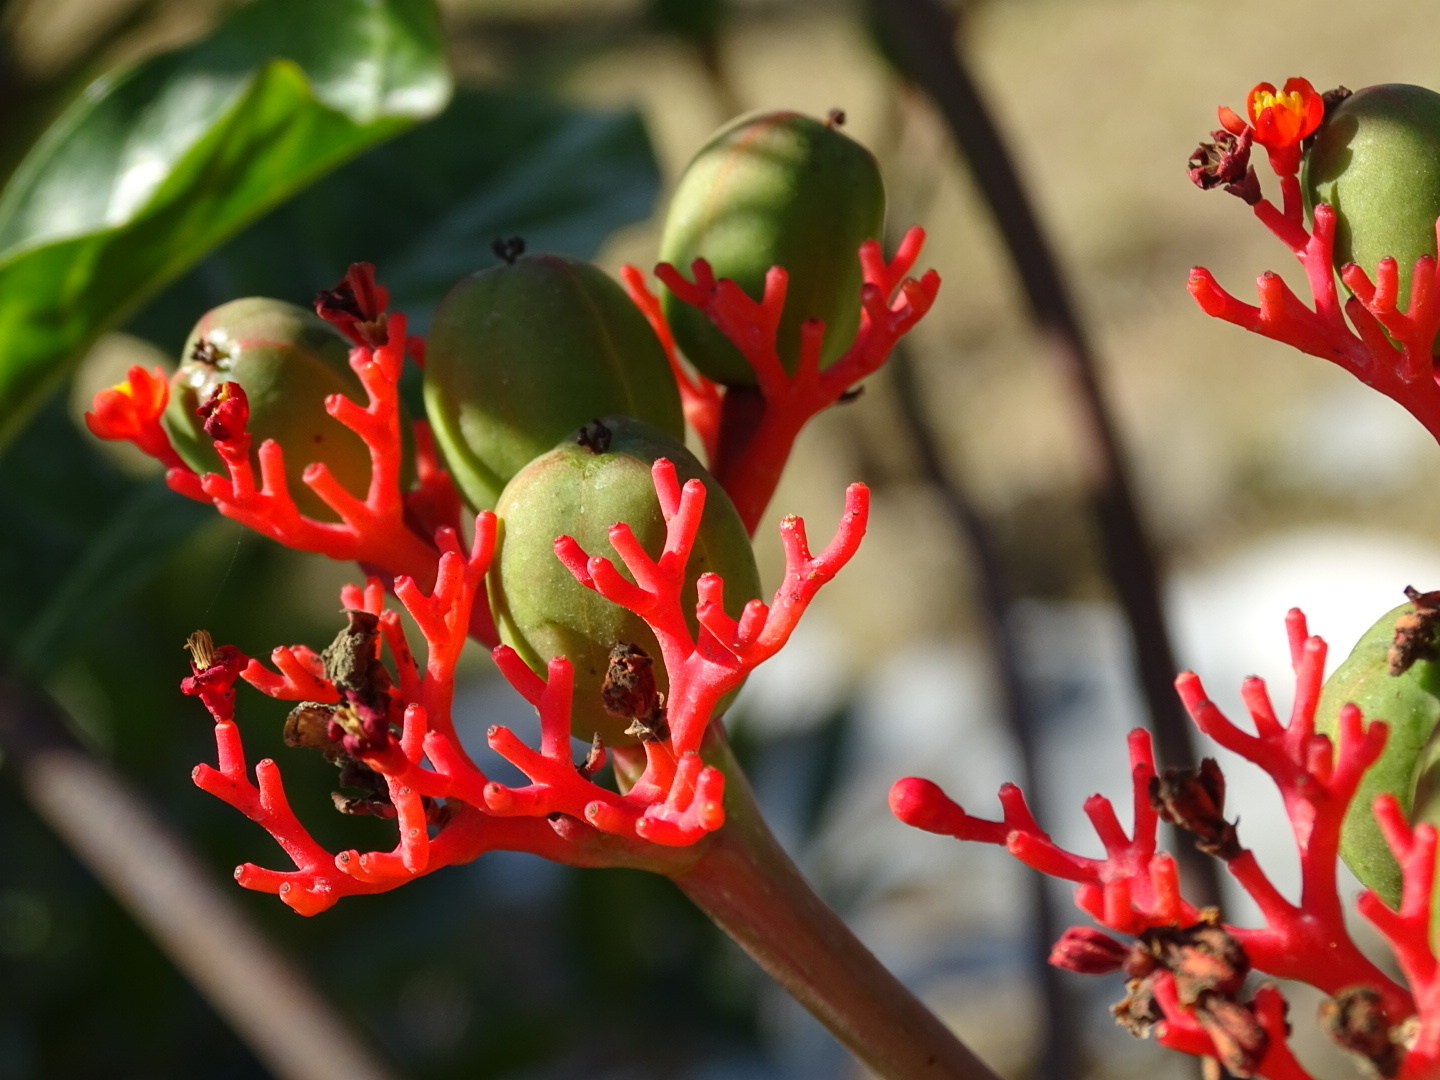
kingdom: Plantae
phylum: Tracheophyta
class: Magnoliopsida
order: Malpighiales
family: Euphorbiaceae
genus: Jatropha
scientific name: Jatropha podagrica
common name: Gout stalk
